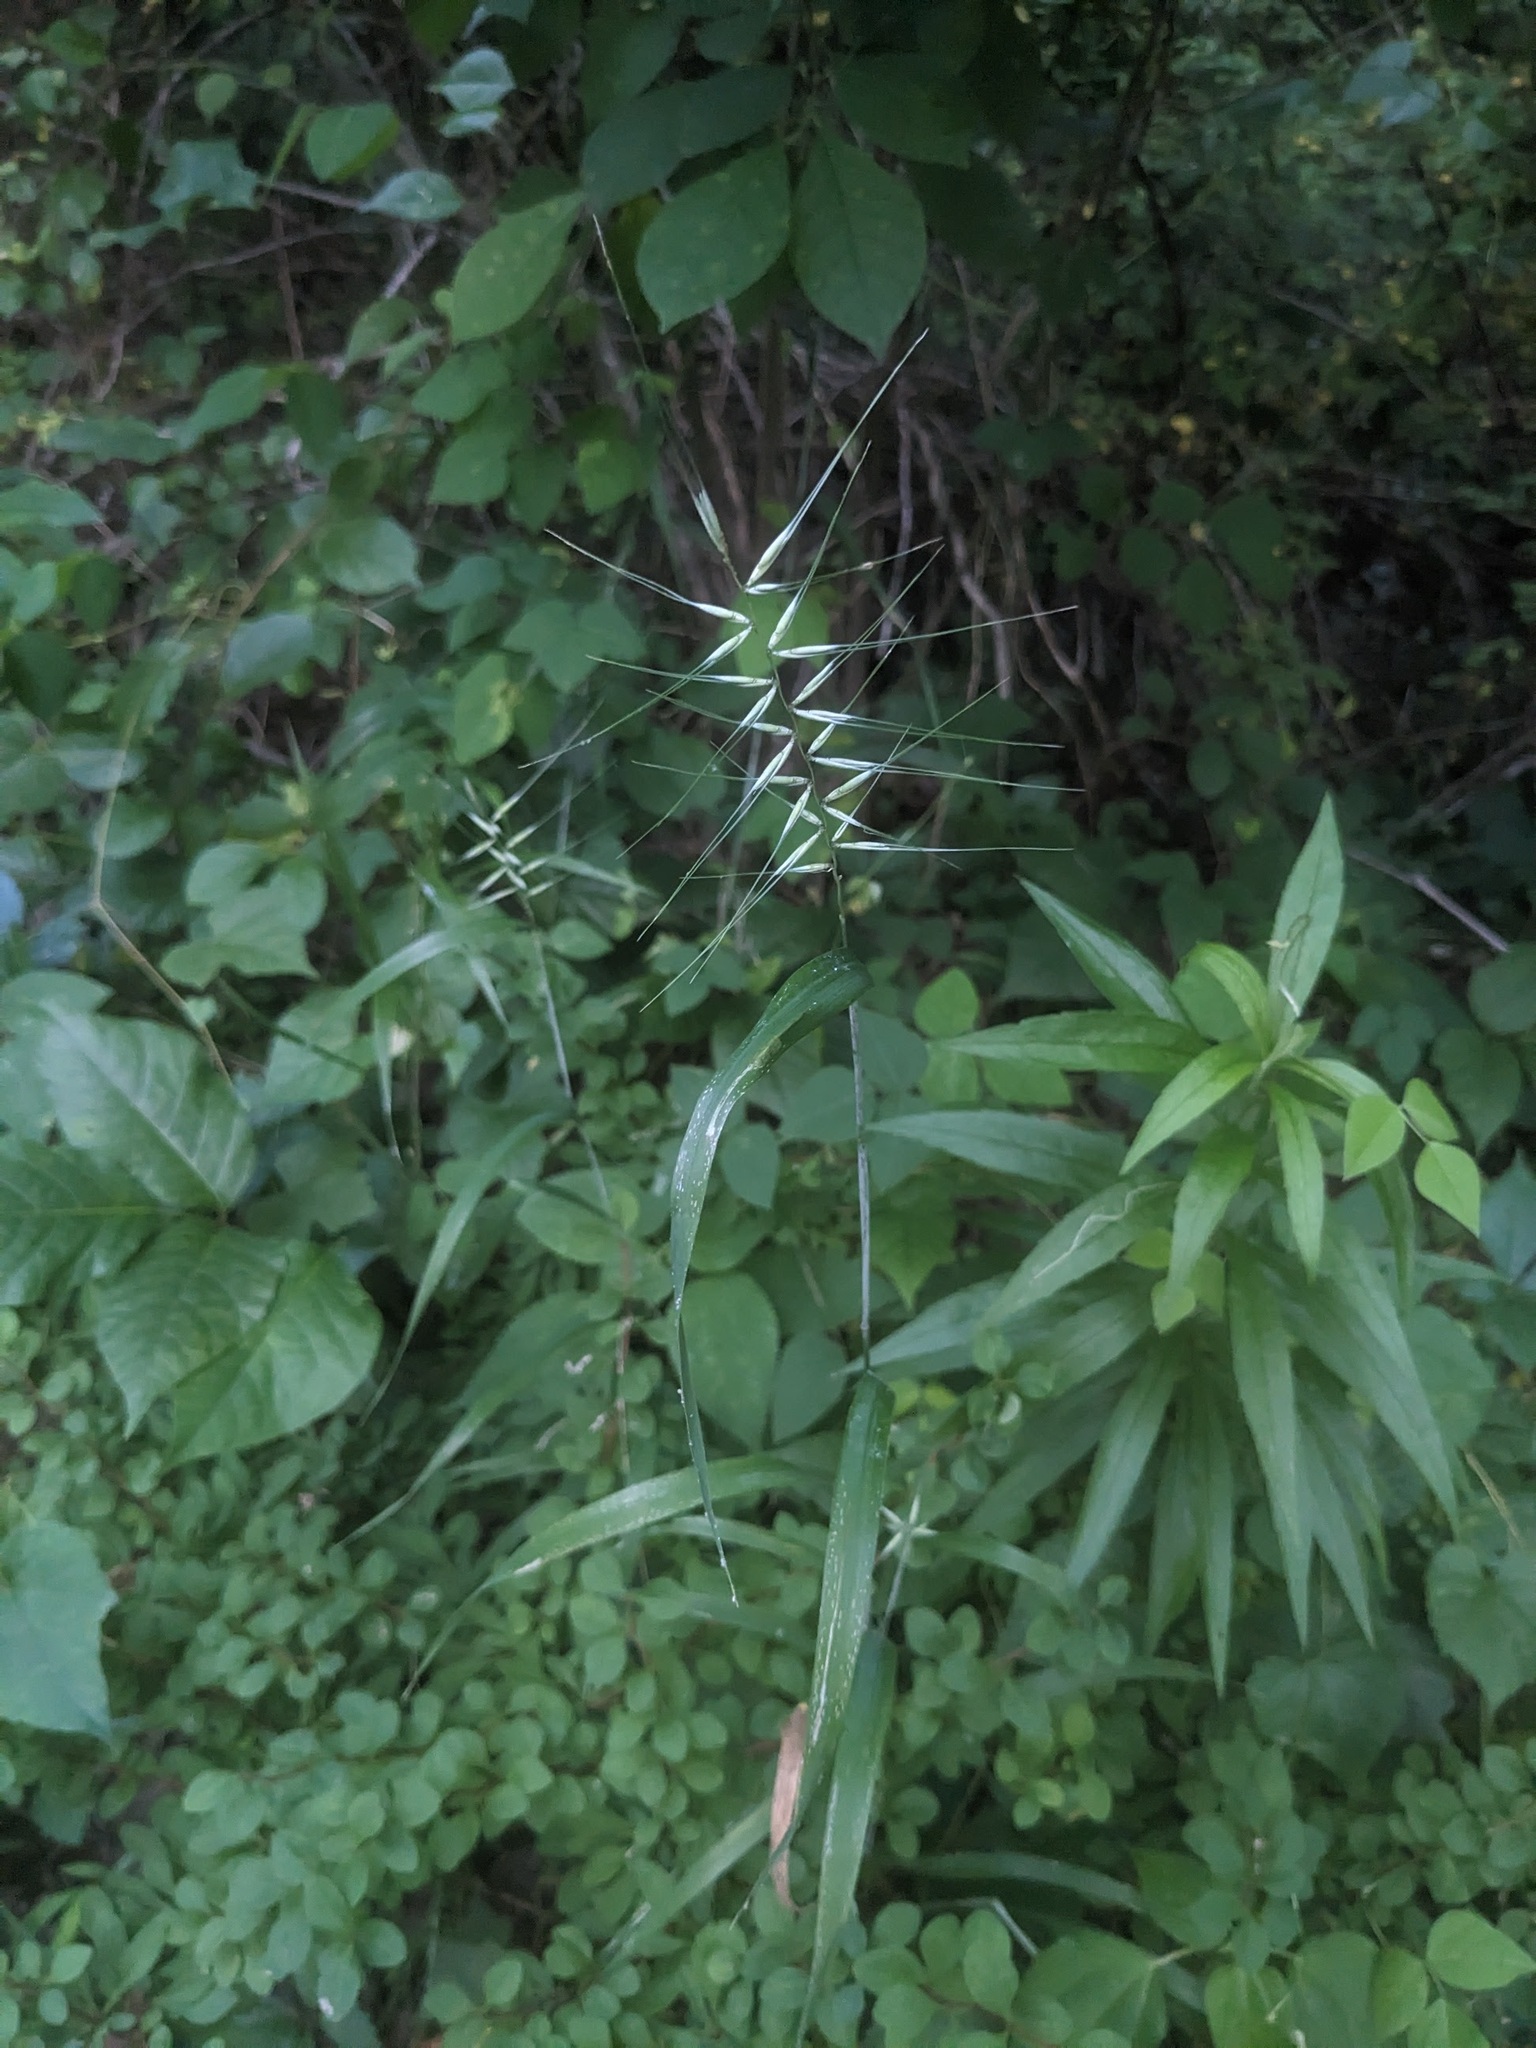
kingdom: Plantae
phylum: Tracheophyta
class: Liliopsida
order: Poales
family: Poaceae
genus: Elymus
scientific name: Elymus hystrix
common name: Bottlebrush grass
